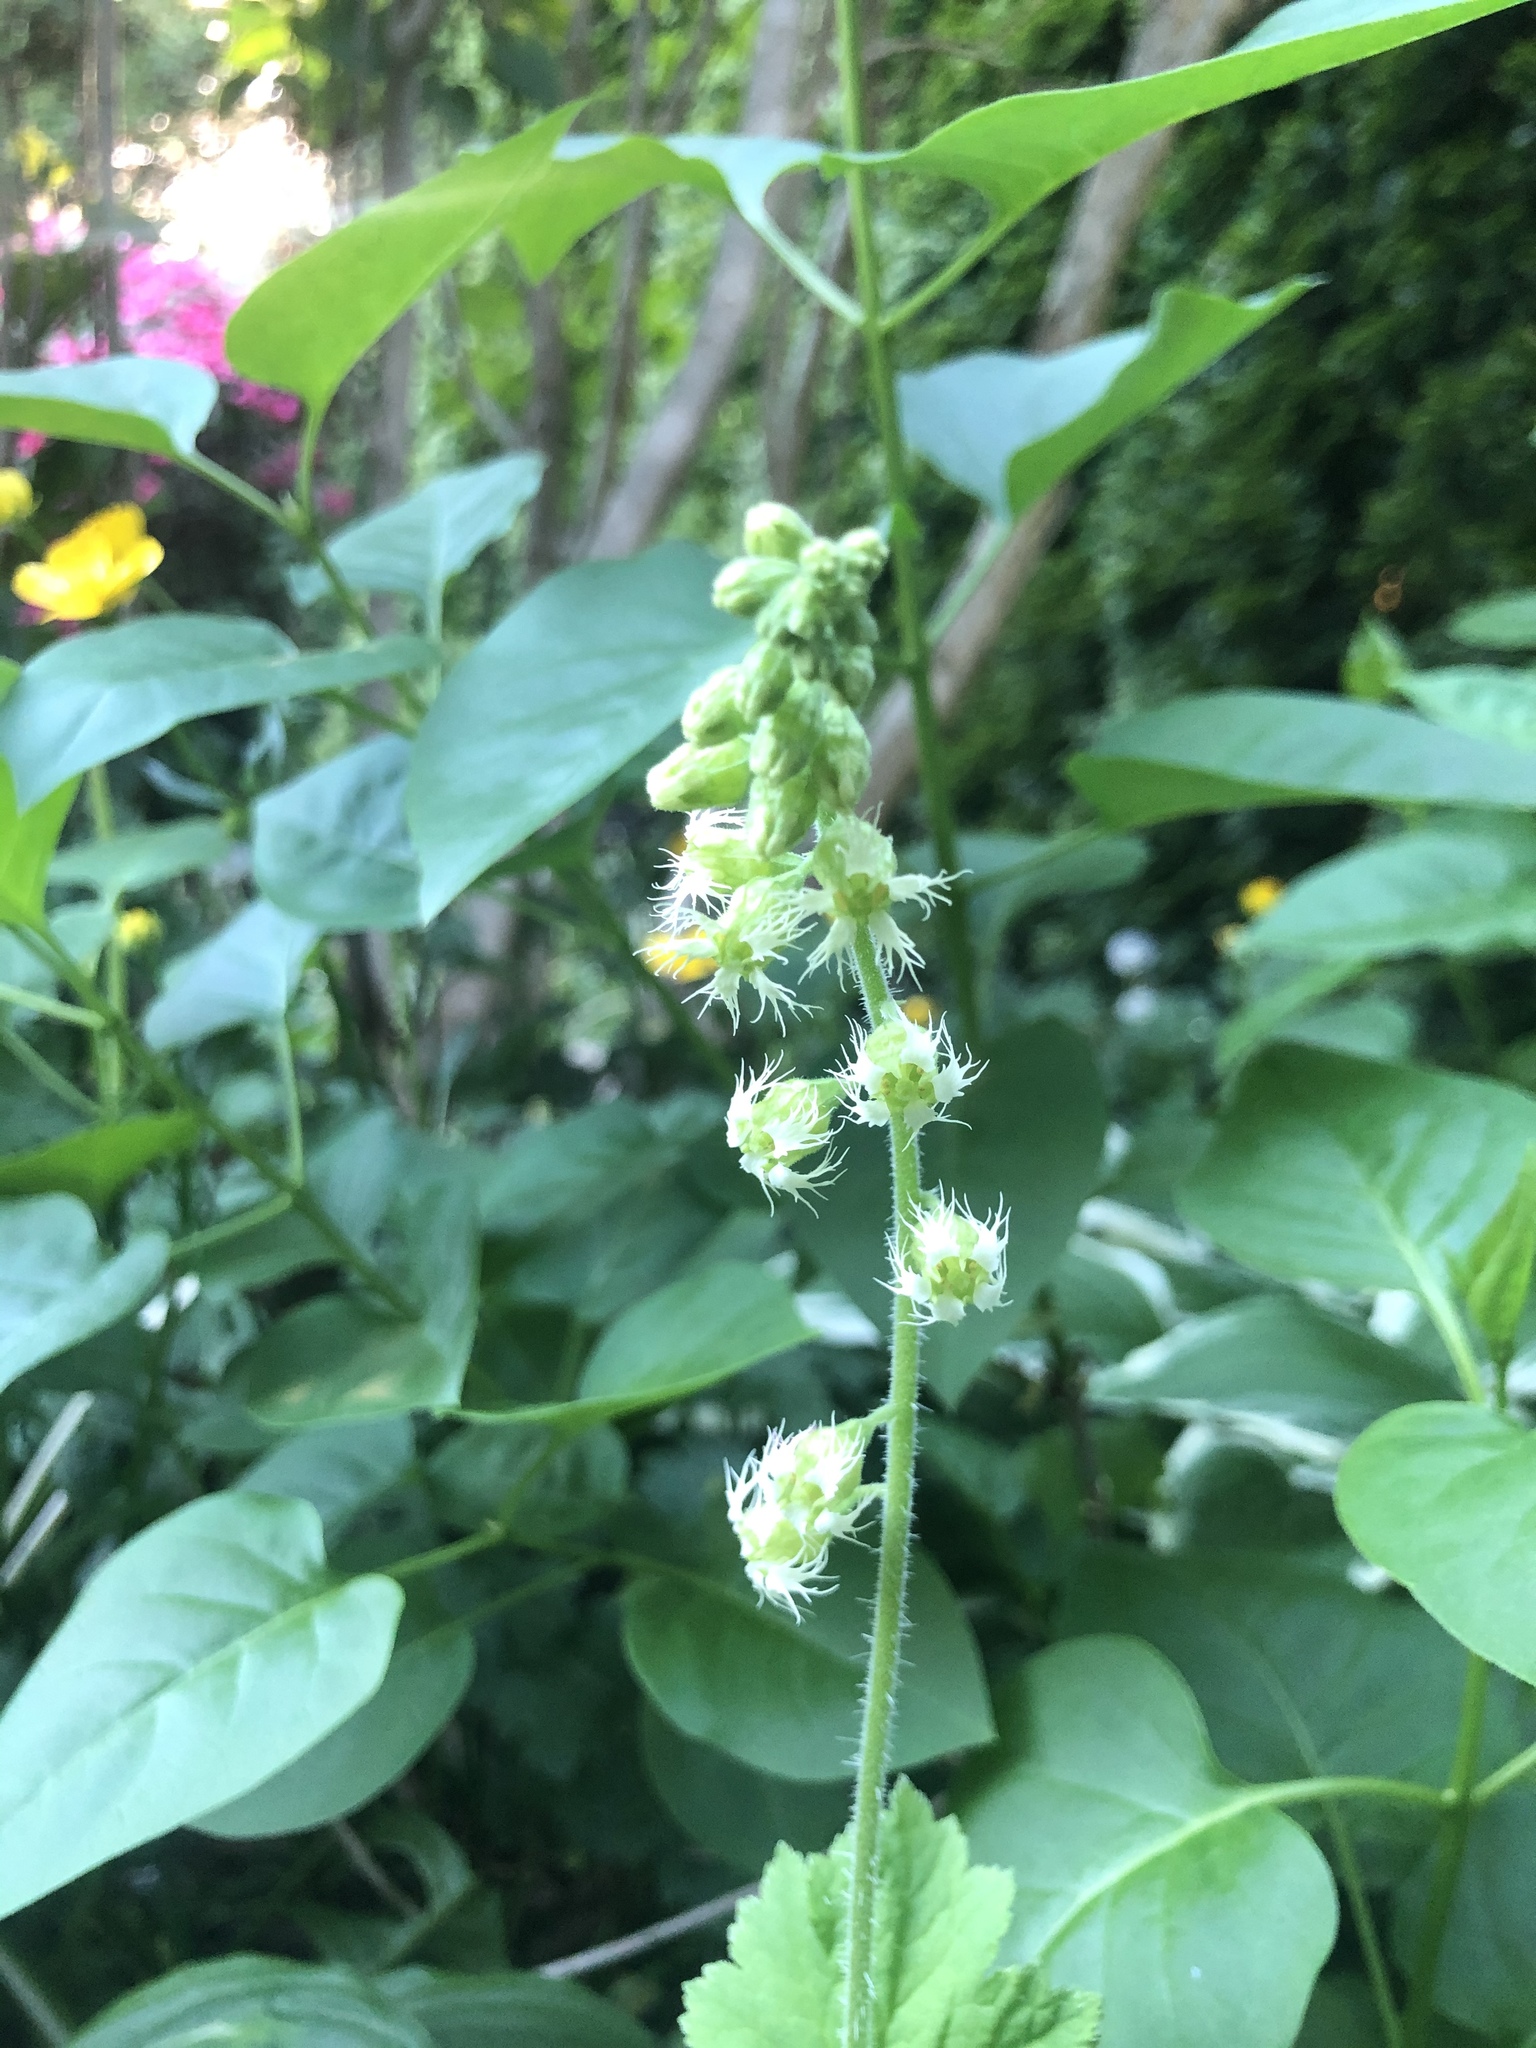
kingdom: Plantae
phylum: Tracheophyta
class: Magnoliopsida
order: Saxifragales
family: Saxifragaceae
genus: Tellima
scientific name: Tellima grandiflora
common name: Fringecups
